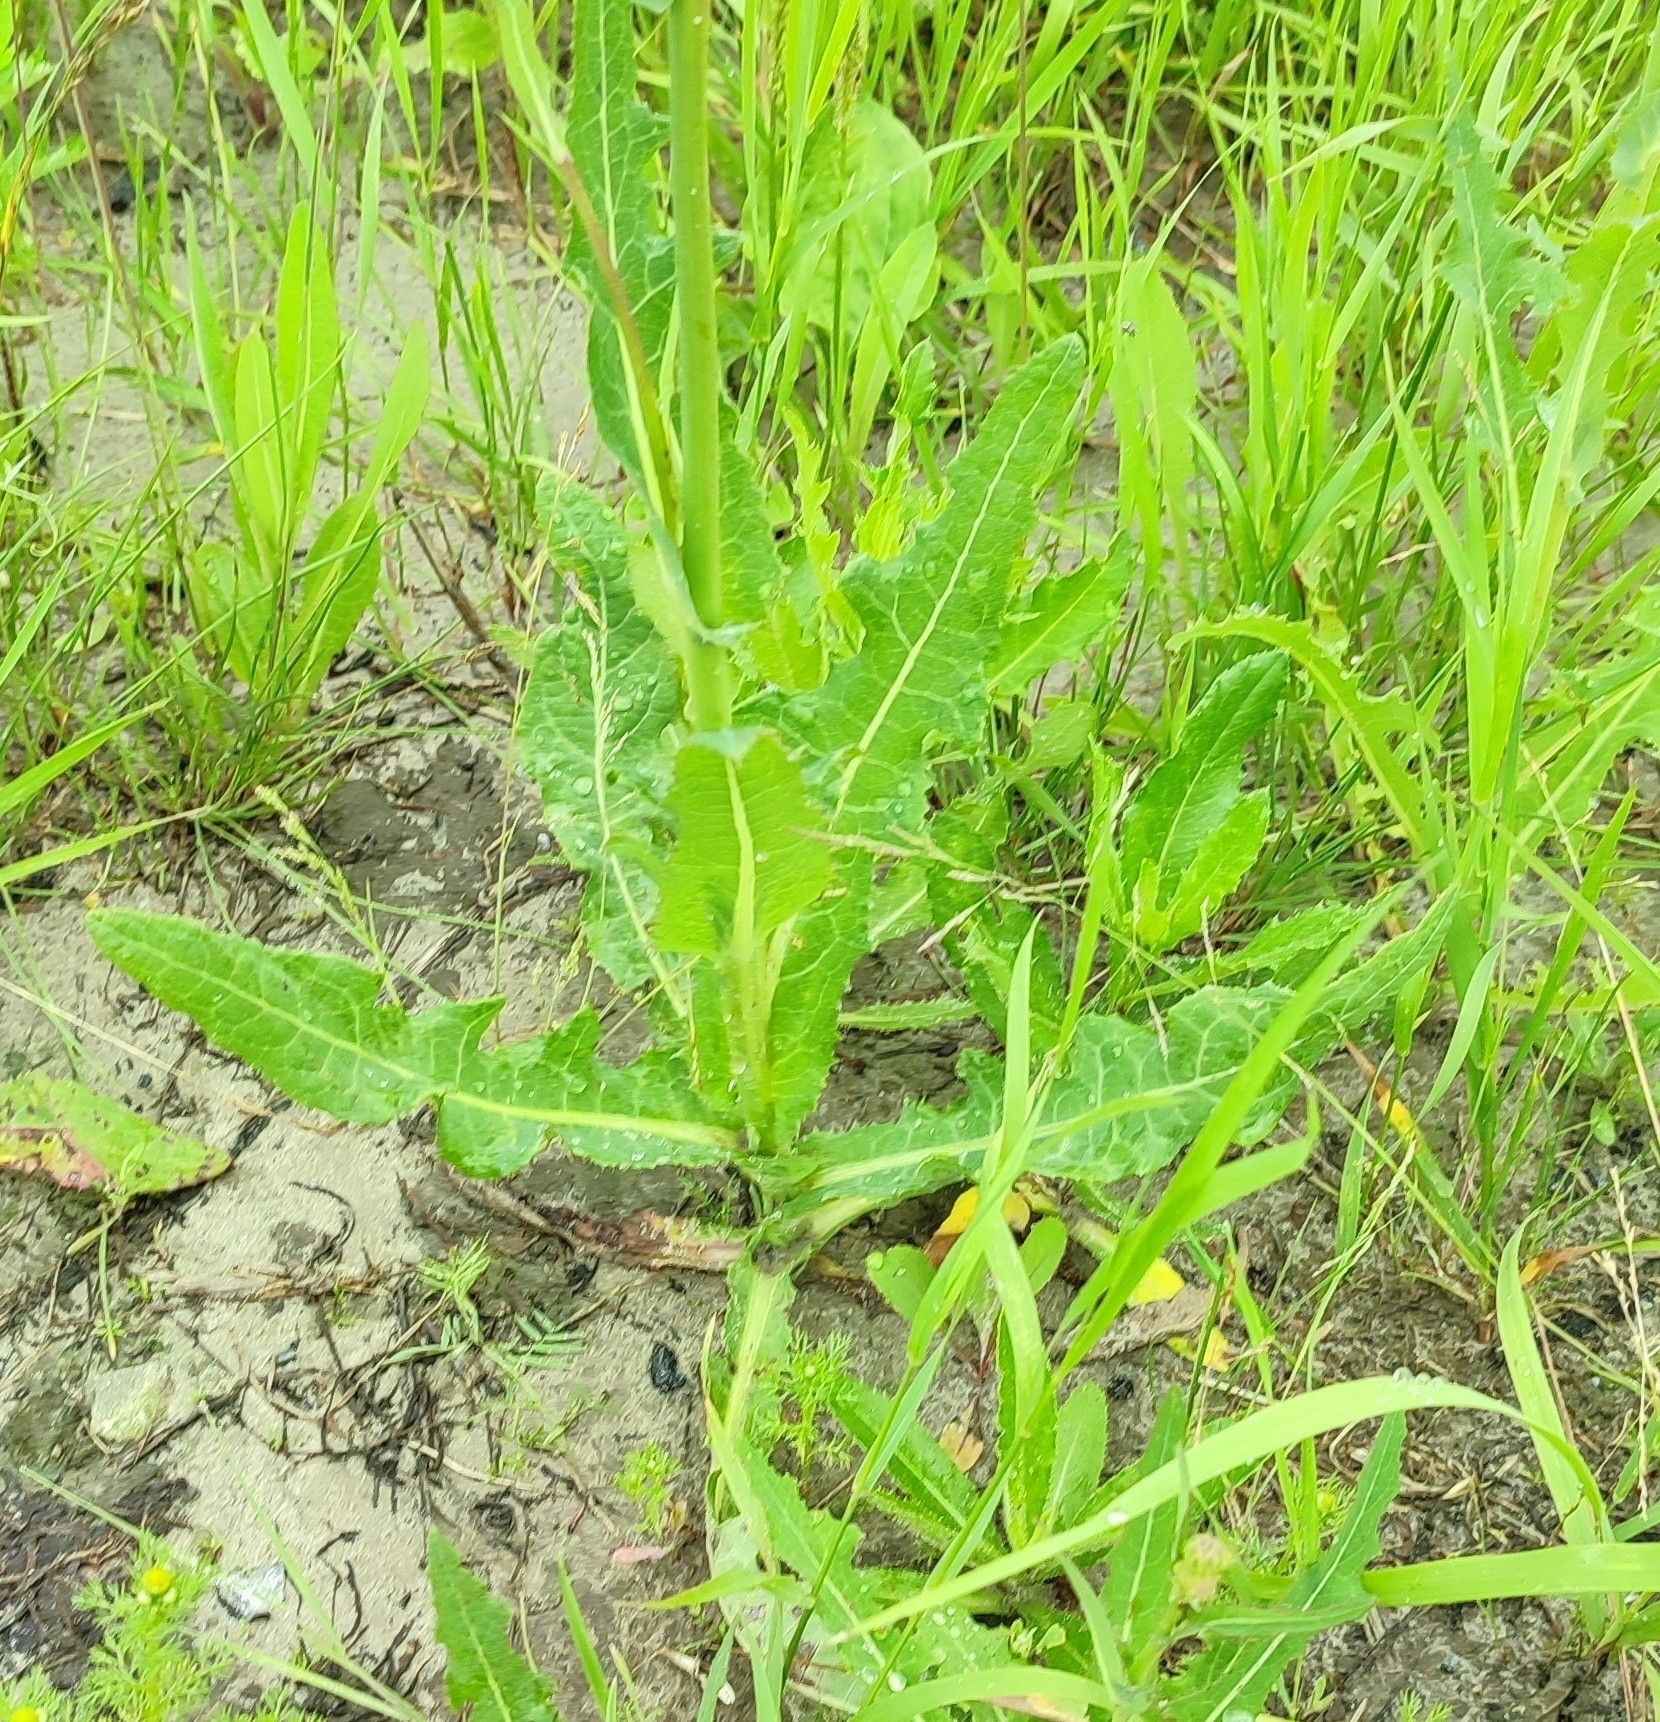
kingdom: Plantae
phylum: Tracheophyta
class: Magnoliopsida
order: Asterales
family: Asteraceae
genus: Sonchus
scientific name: Sonchus arvensis
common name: Perennial sow-thistle
